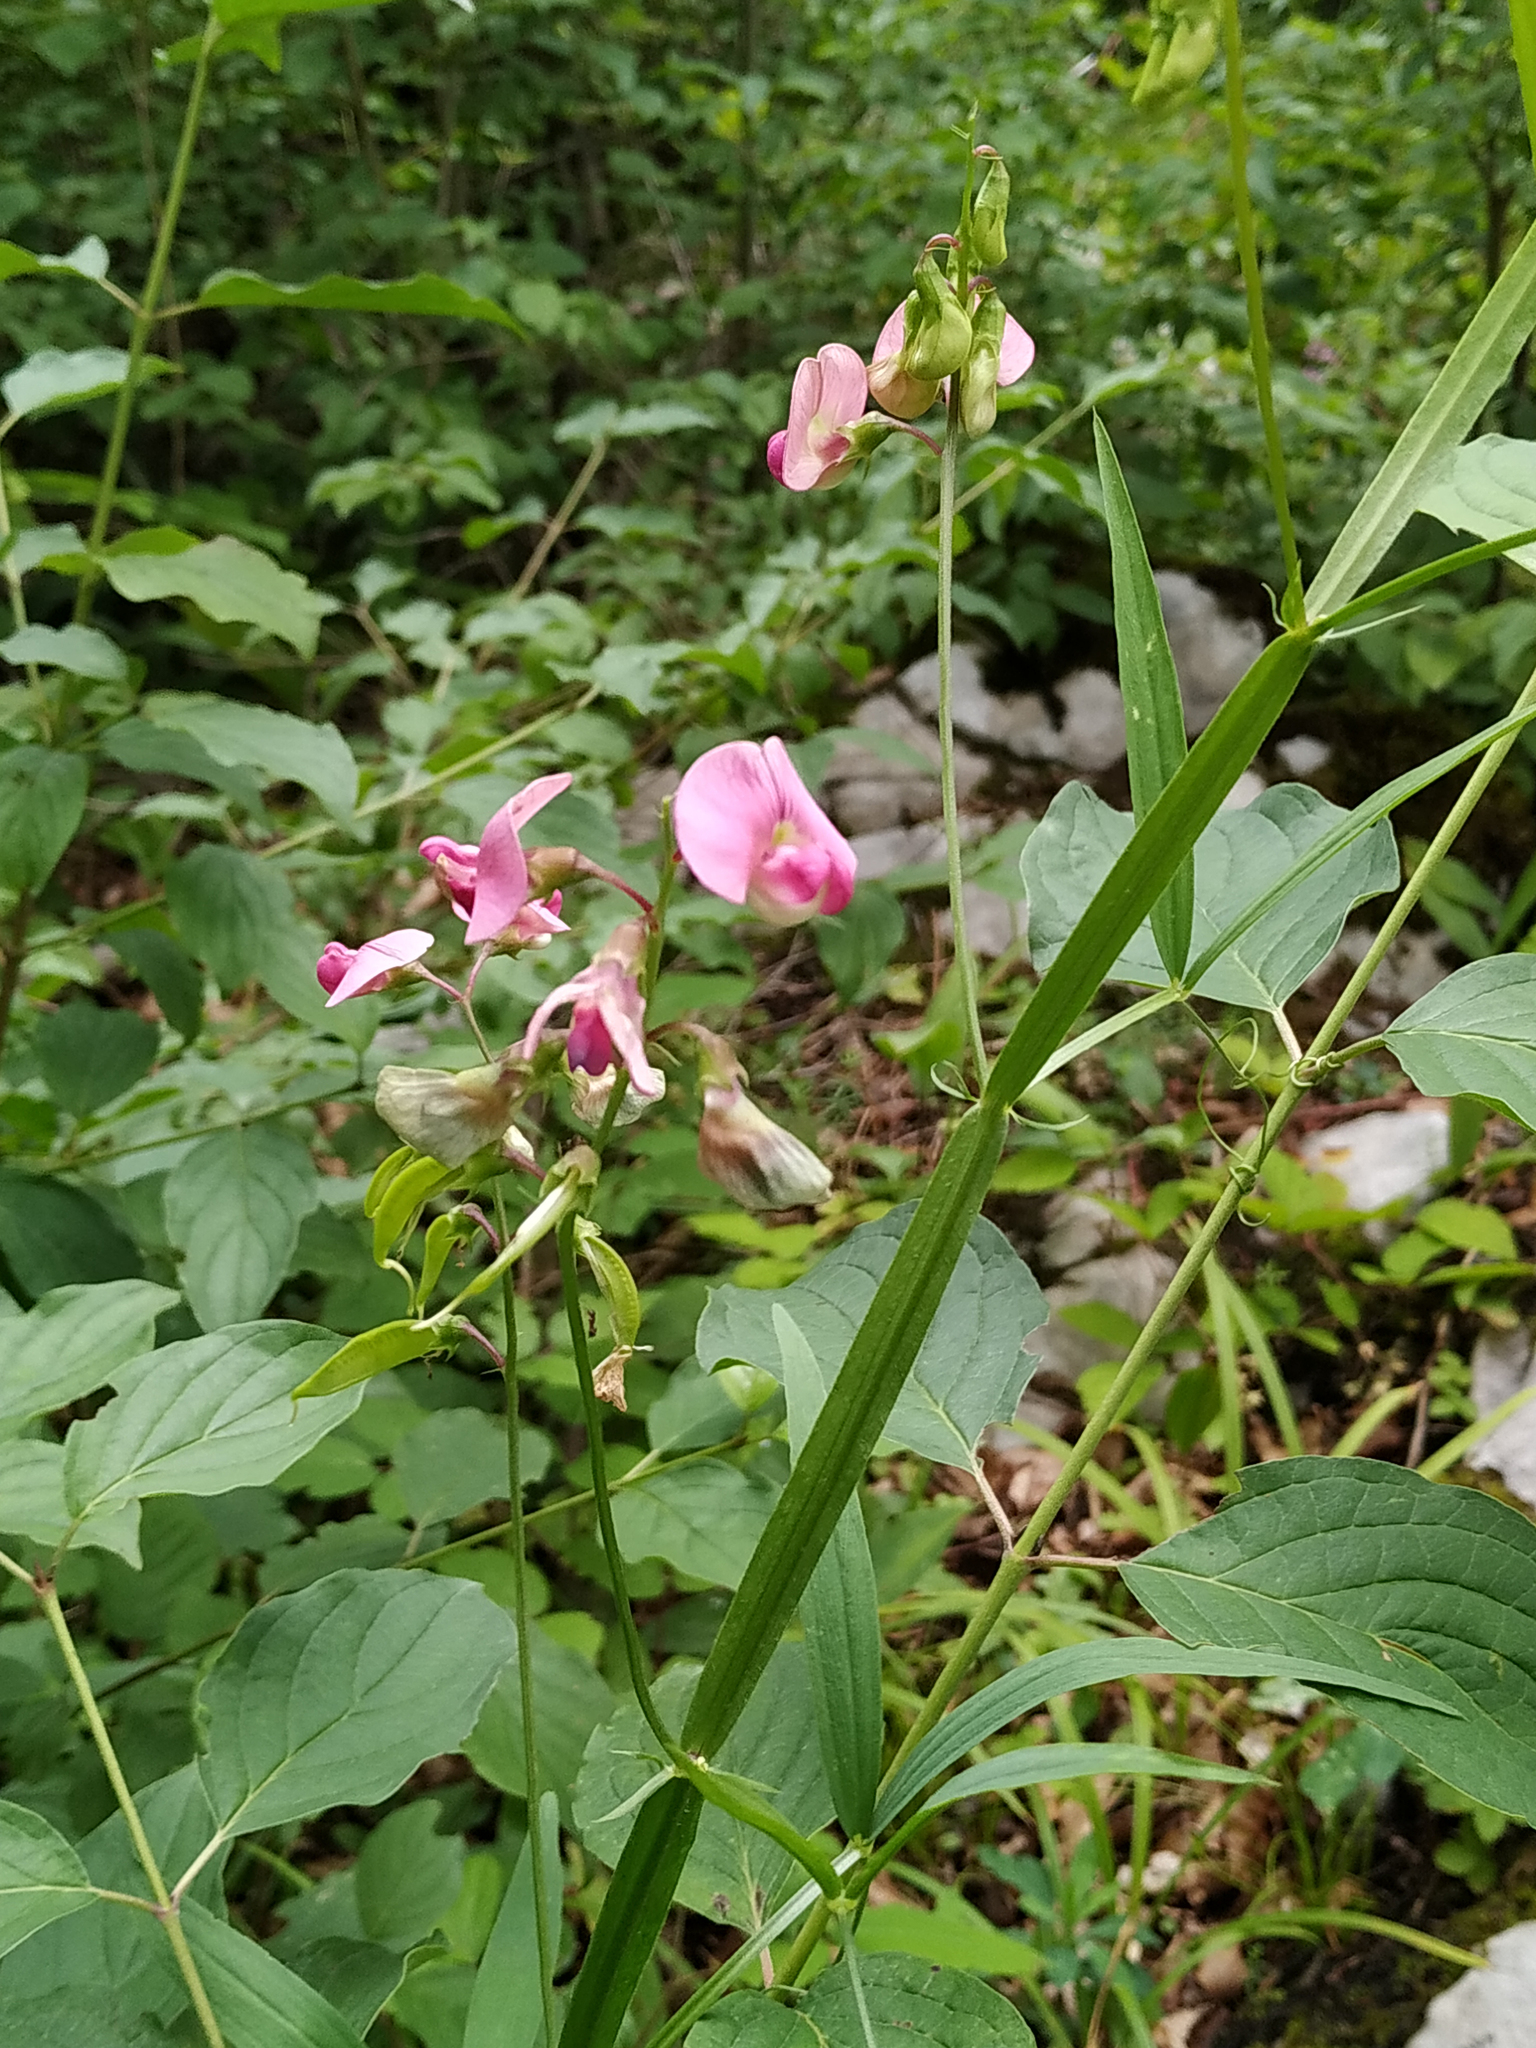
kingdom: Plantae
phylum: Tracheophyta
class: Magnoliopsida
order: Fabales
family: Fabaceae
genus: Lathyrus
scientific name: Lathyrus sylvestris
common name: Flat pea
